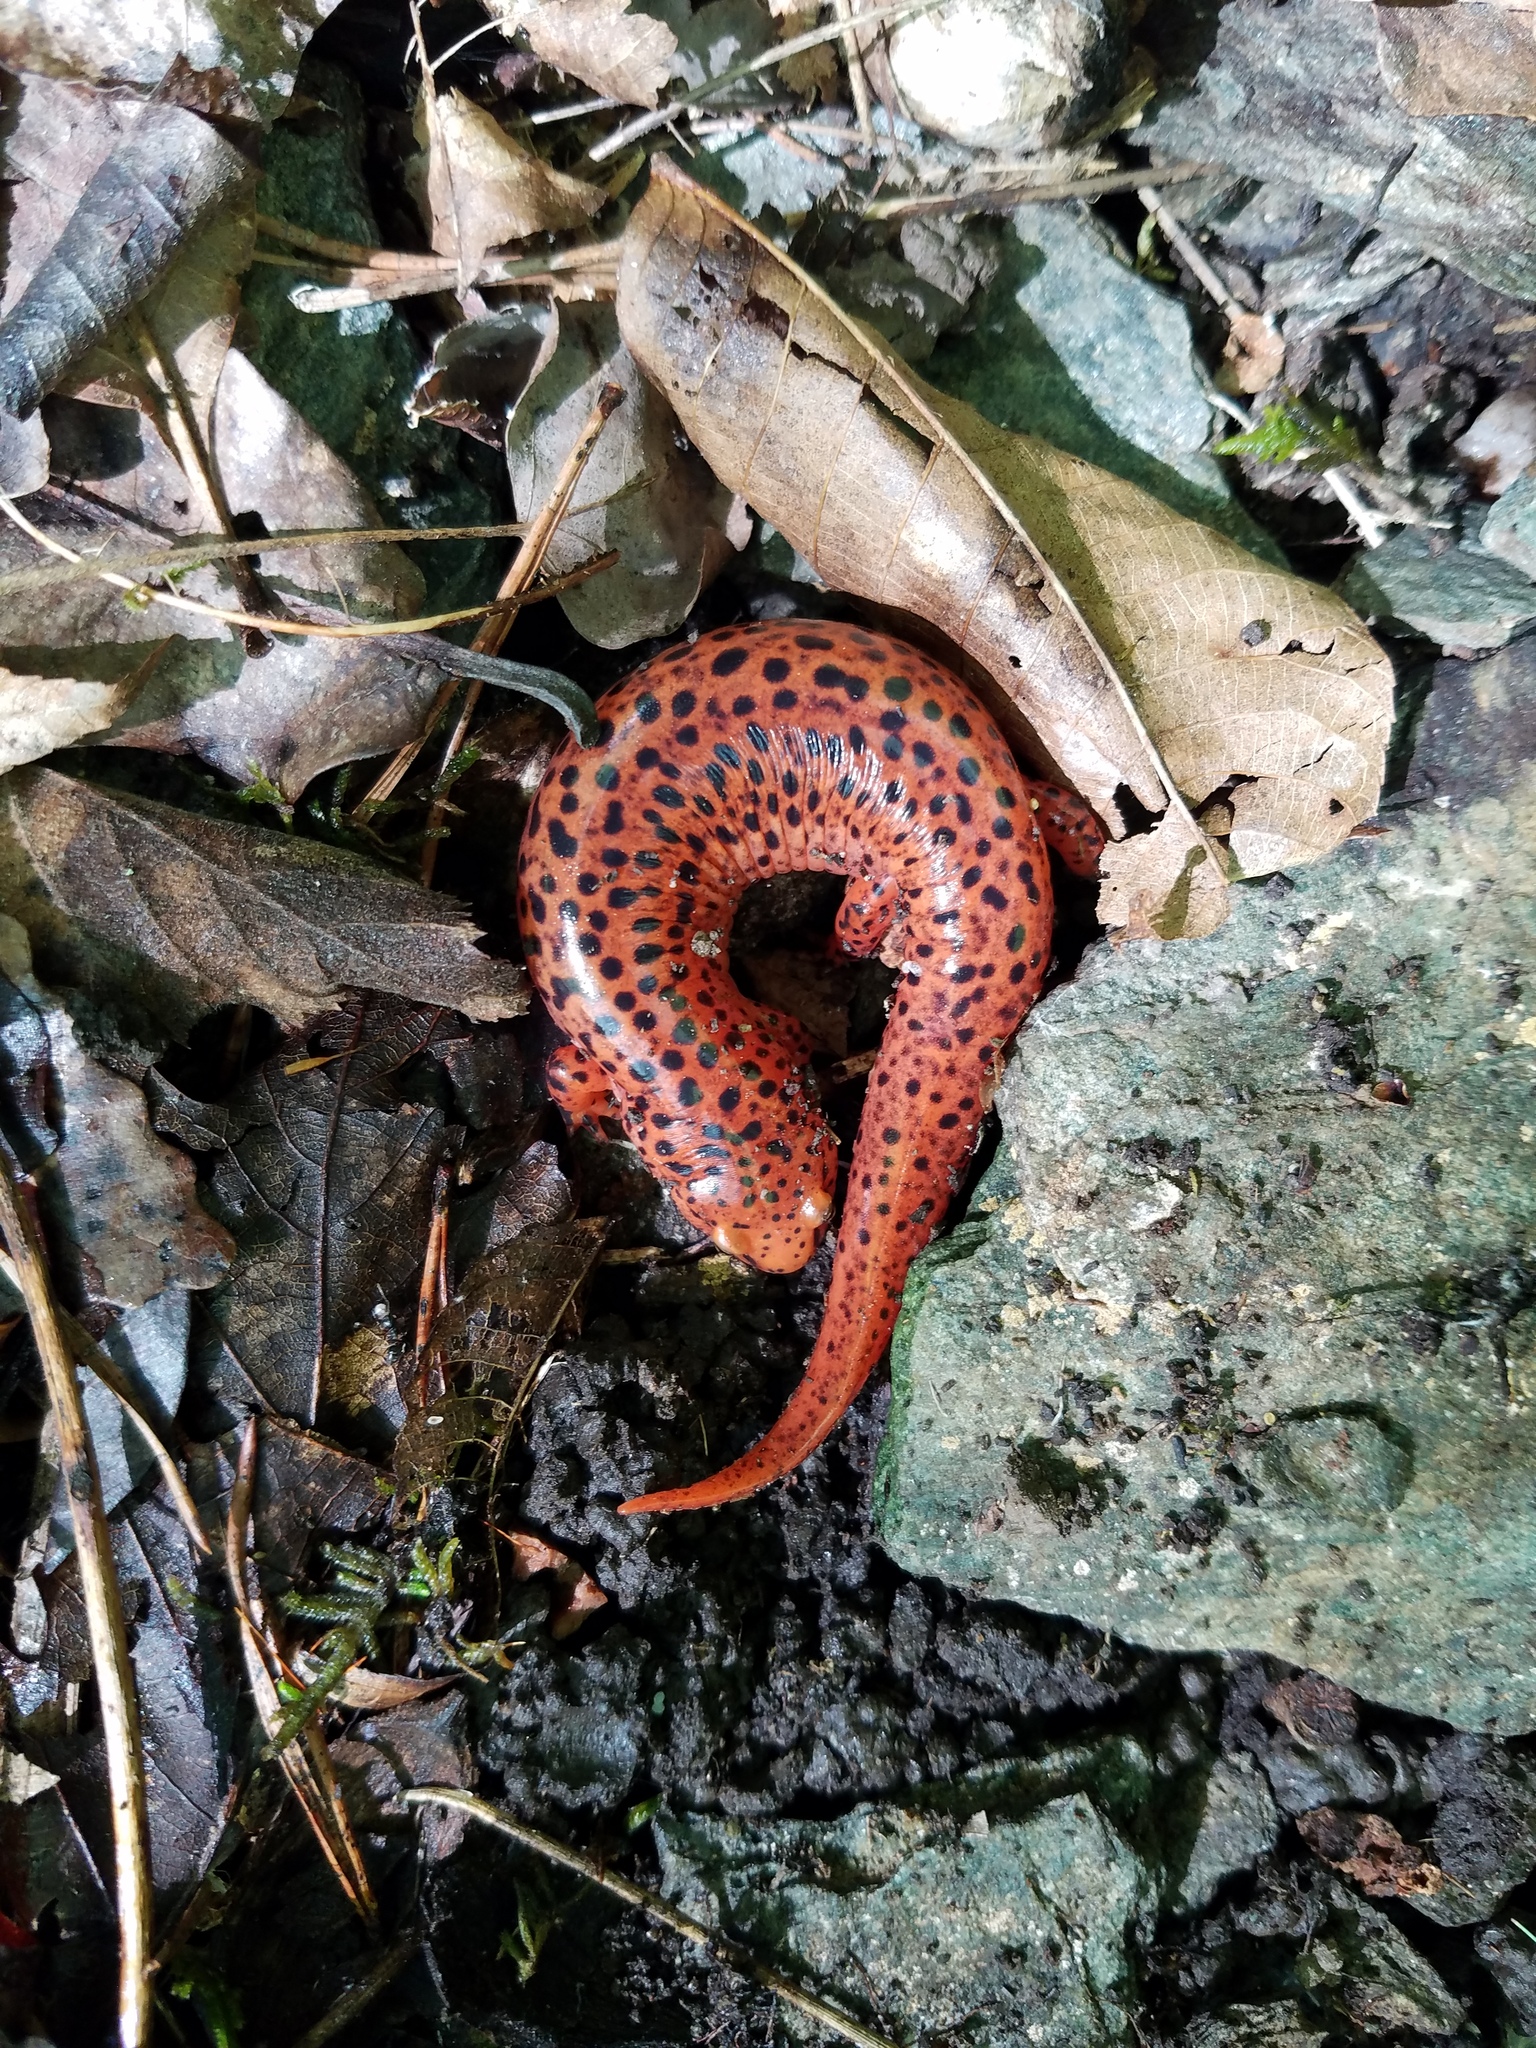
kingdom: Animalia
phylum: Chordata
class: Amphibia
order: Caudata
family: Plethodontidae
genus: Pseudotriton
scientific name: Pseudotriton ruber
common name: Red salamander
